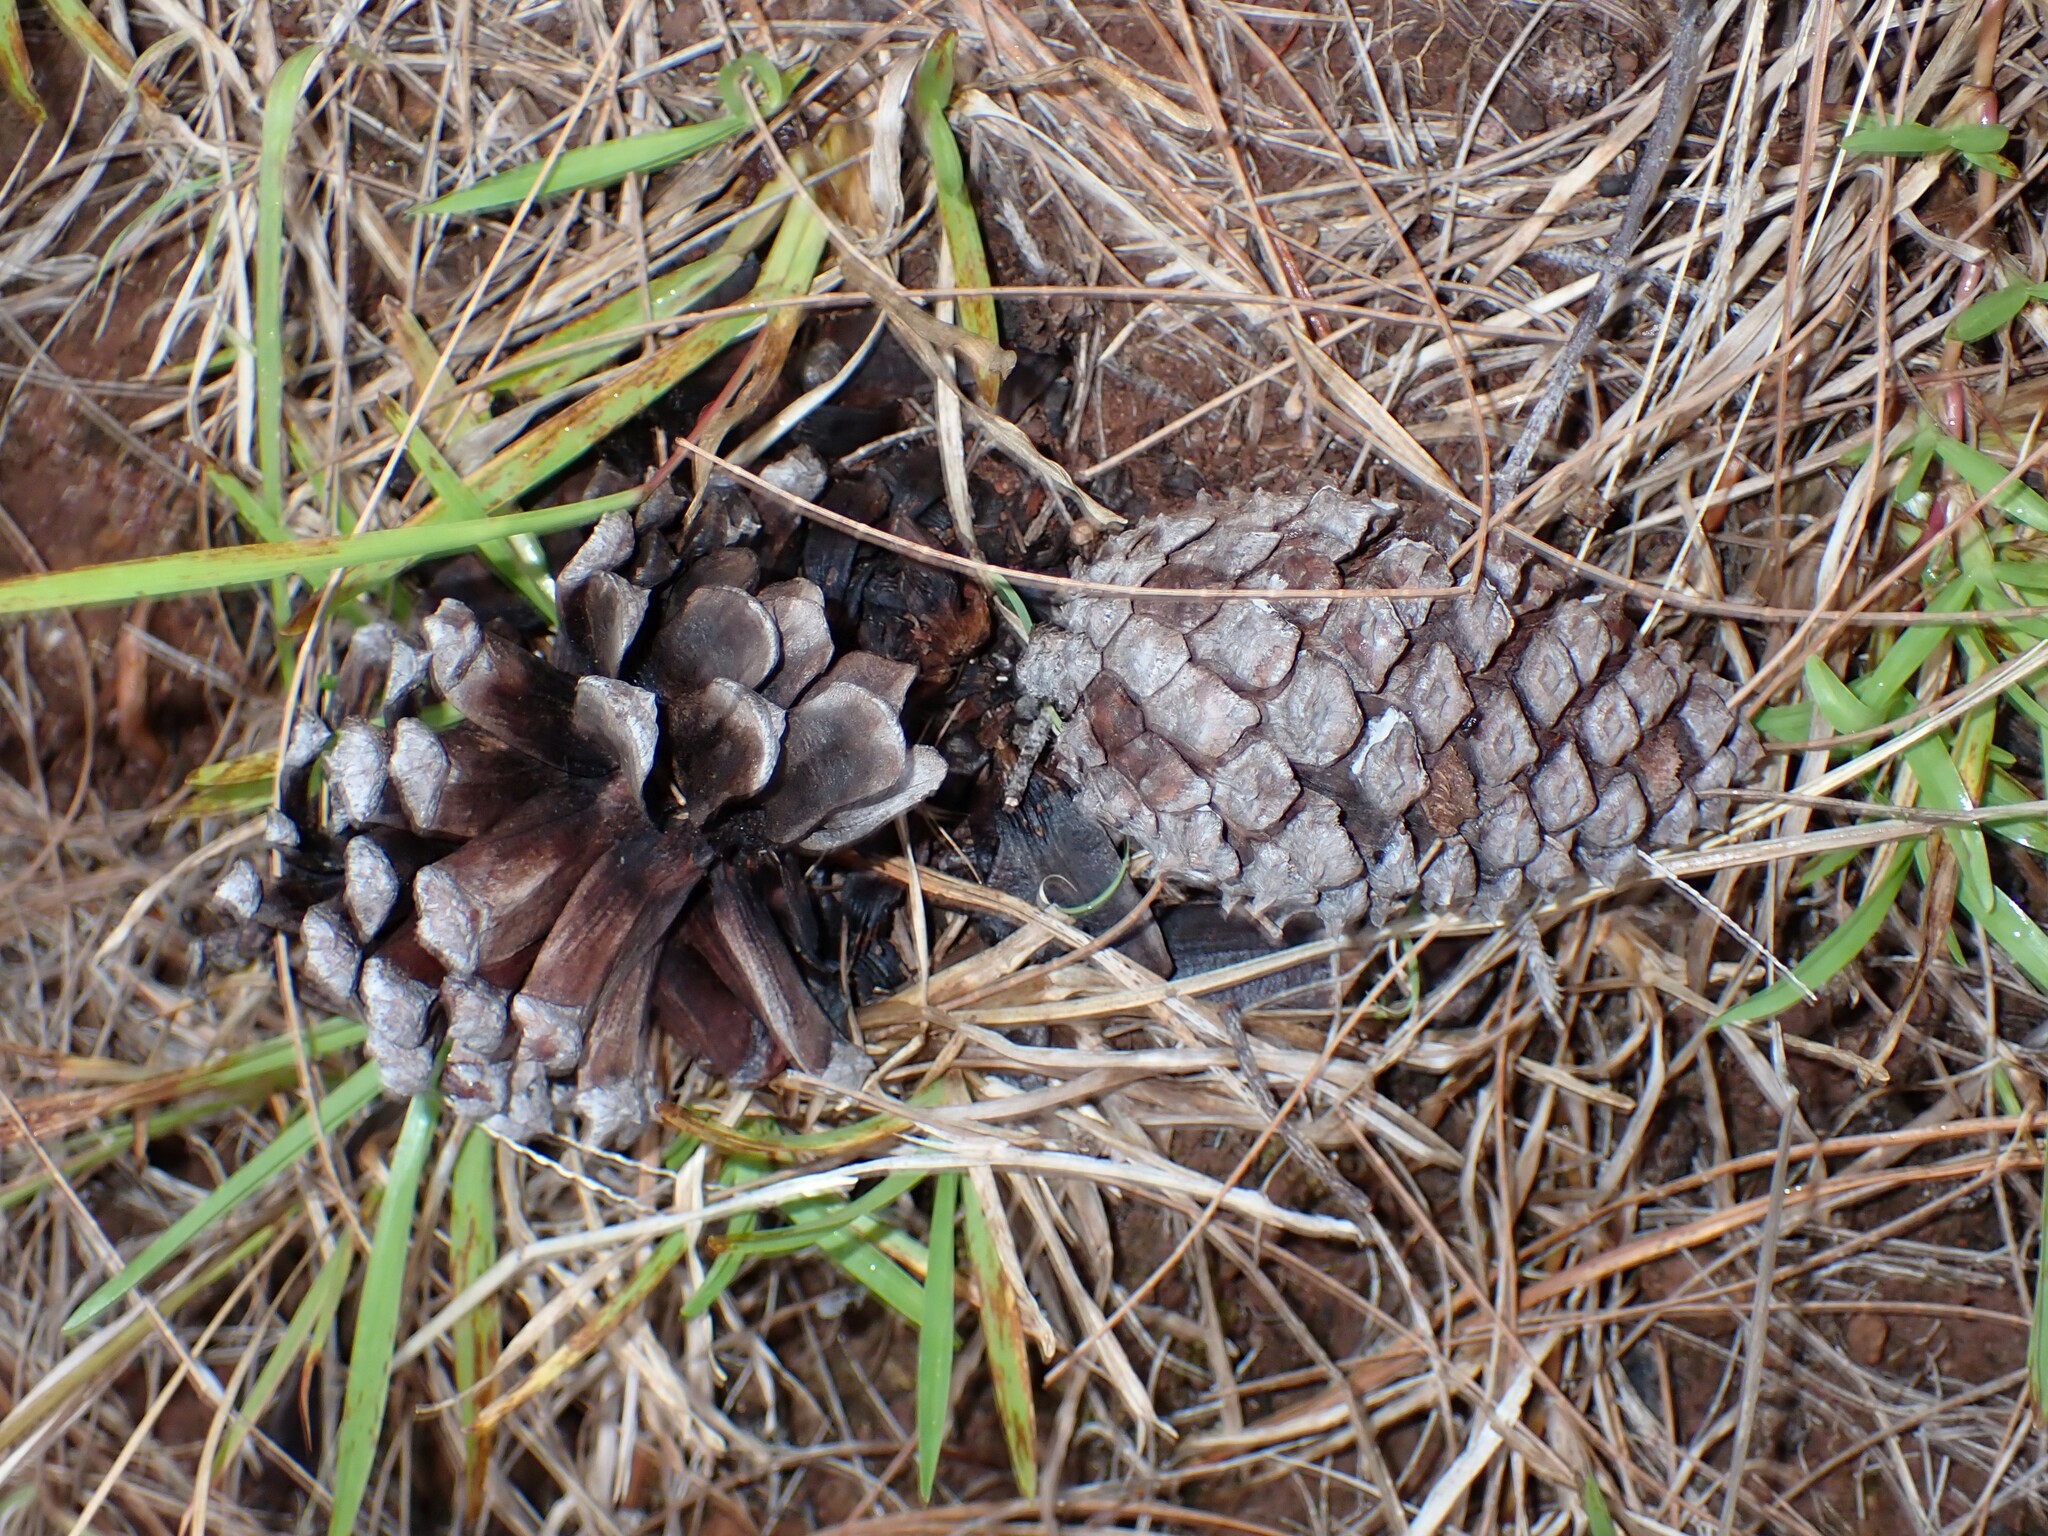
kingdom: Plantae
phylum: Tracheophyta
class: Pinopsida
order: Pinales
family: Pinaceae
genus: Pinus
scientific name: Pinus caribaea
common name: Caribbean pine
